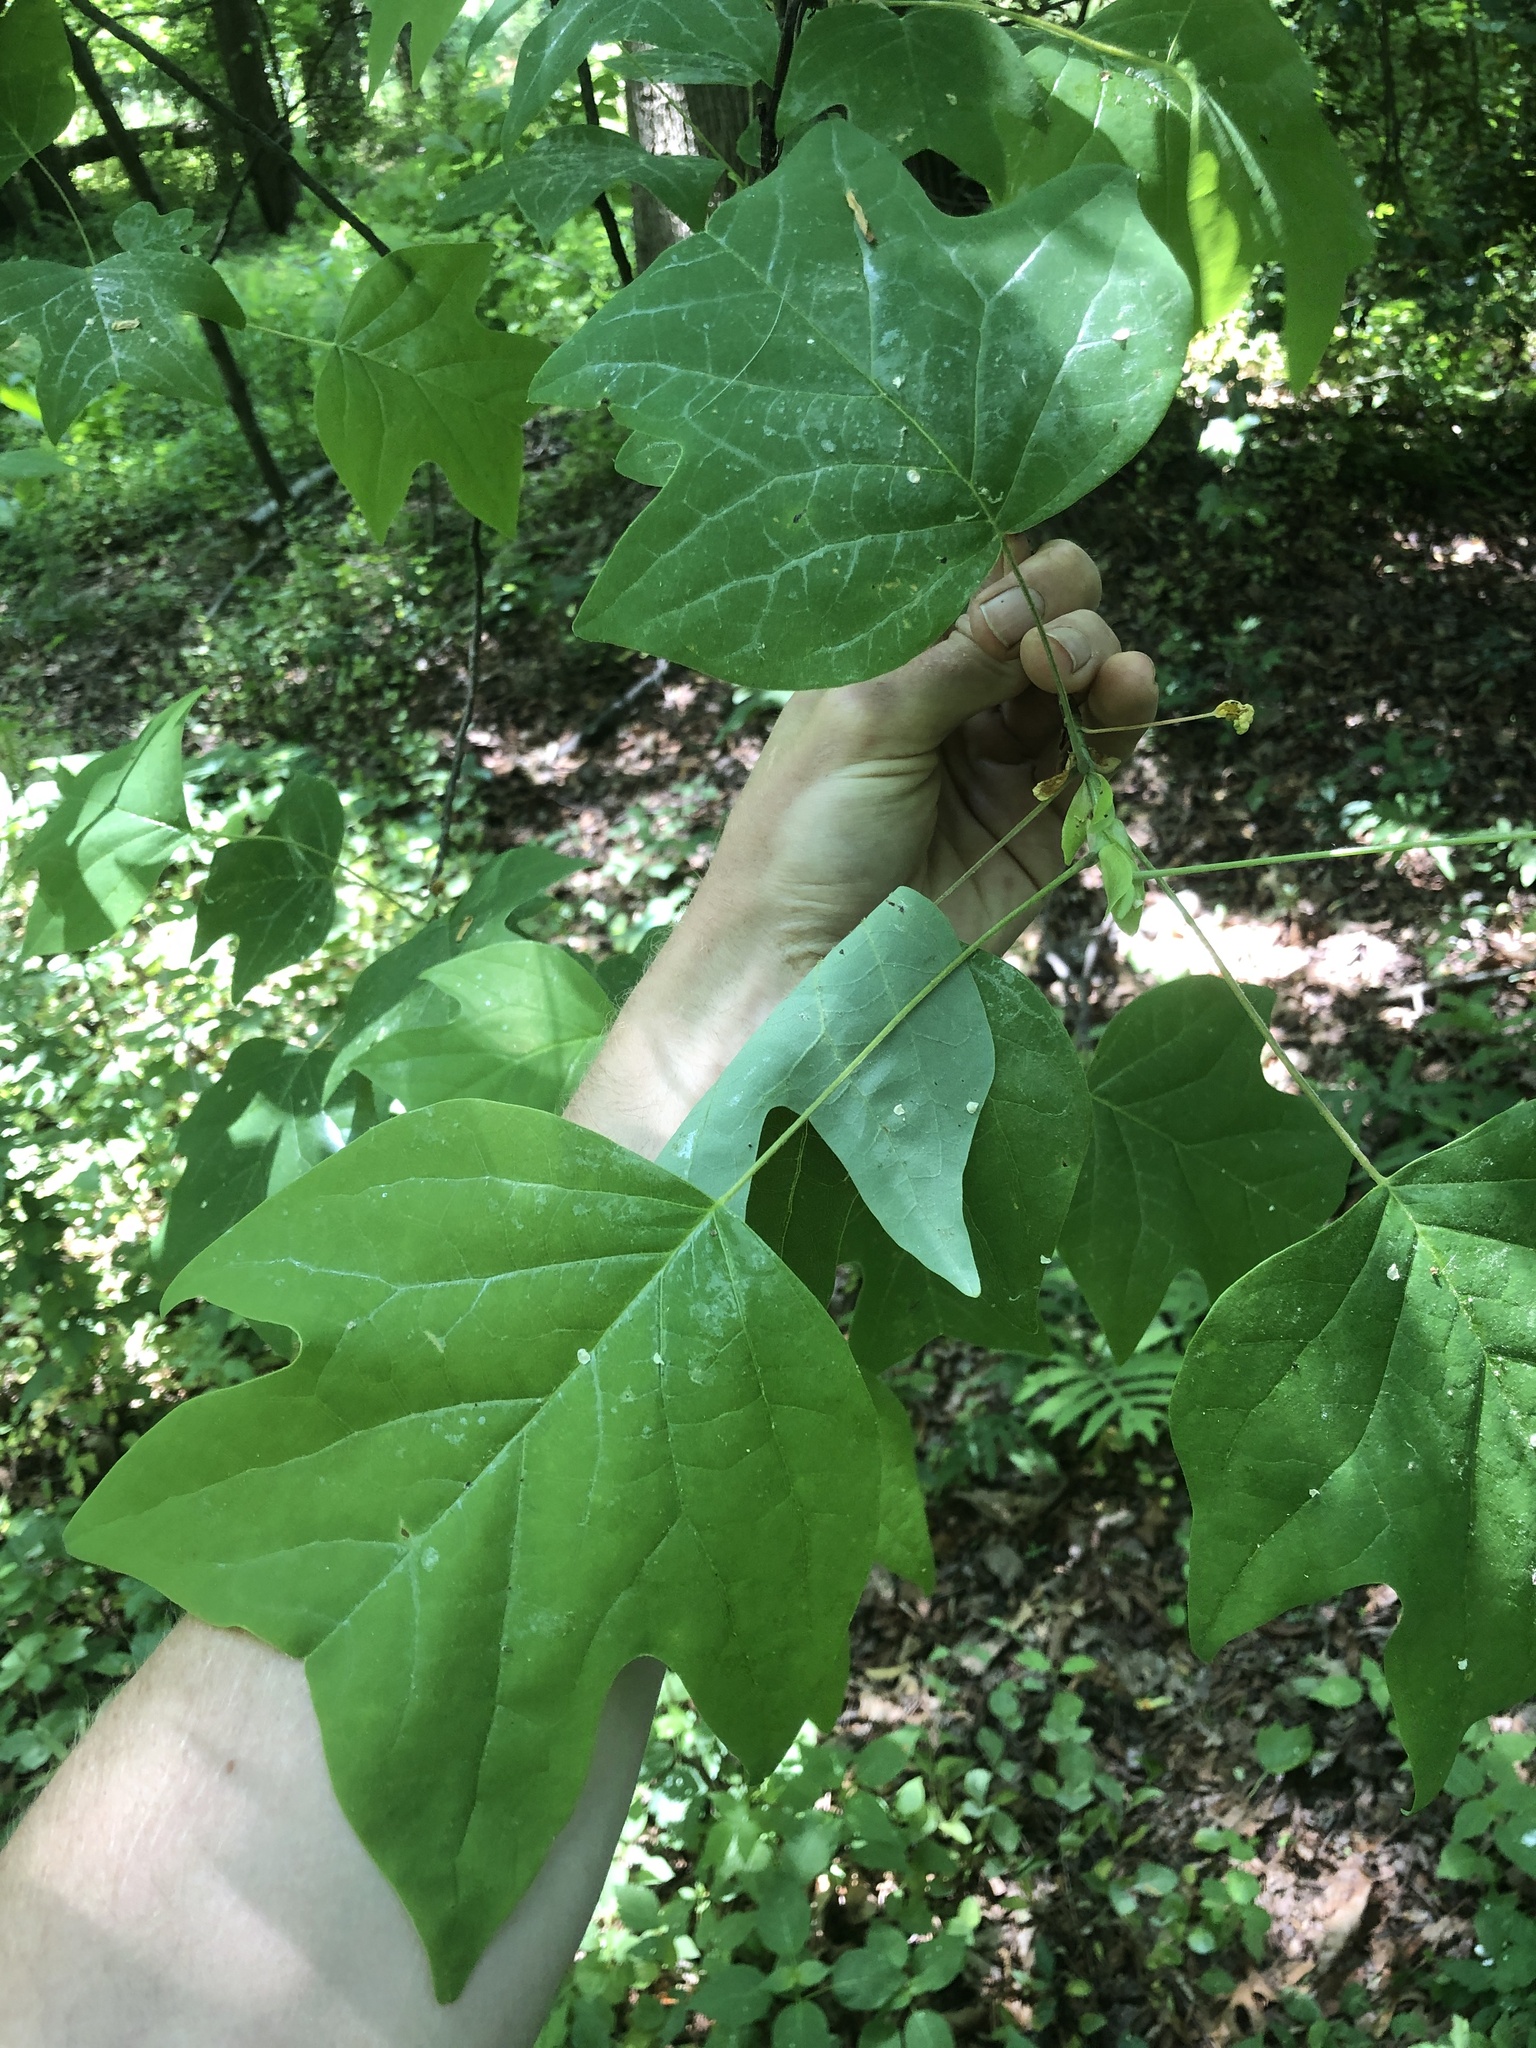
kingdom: Plantae
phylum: Tracheophyta
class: Magnoliopsida
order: Magnoliales
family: Magnoliaceae
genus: Liriodendron
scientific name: Liriodendron tulipifera
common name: Tulip tree
